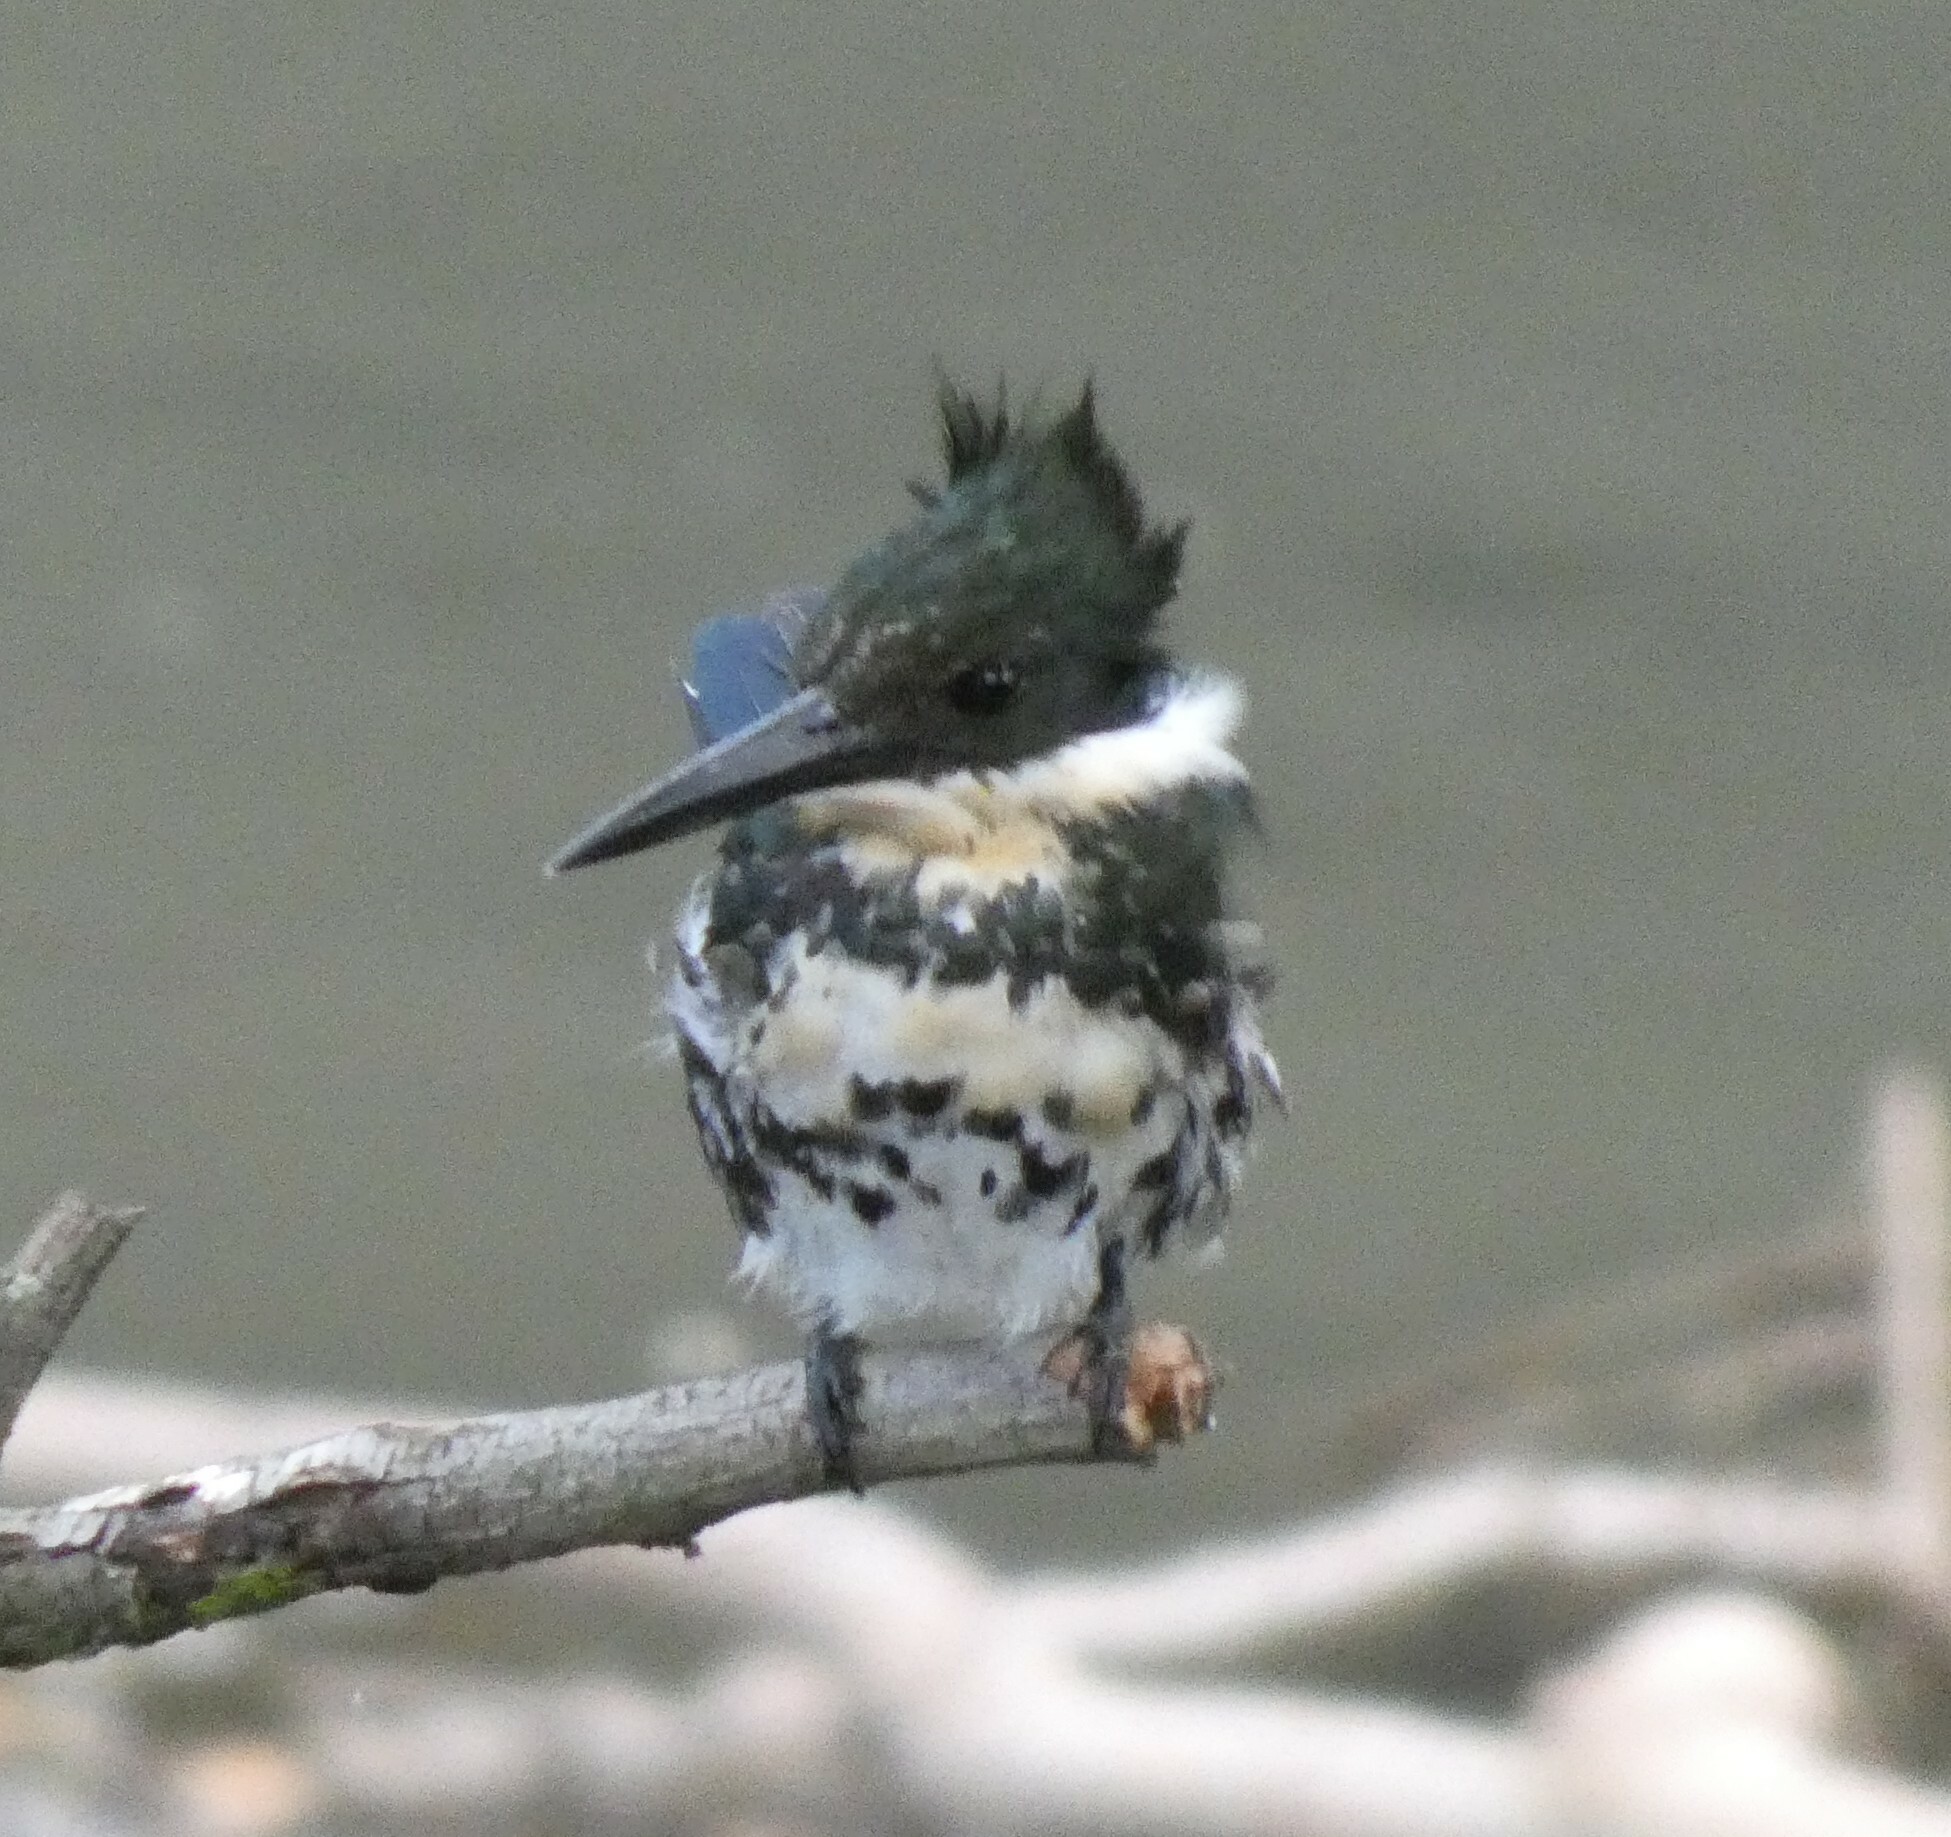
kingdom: Animalia
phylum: Chordata
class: Aves
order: Coraciiformes
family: Alcedinidae
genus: Chloroceryle
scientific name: Chloroceryle americana
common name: Green kingfisher
